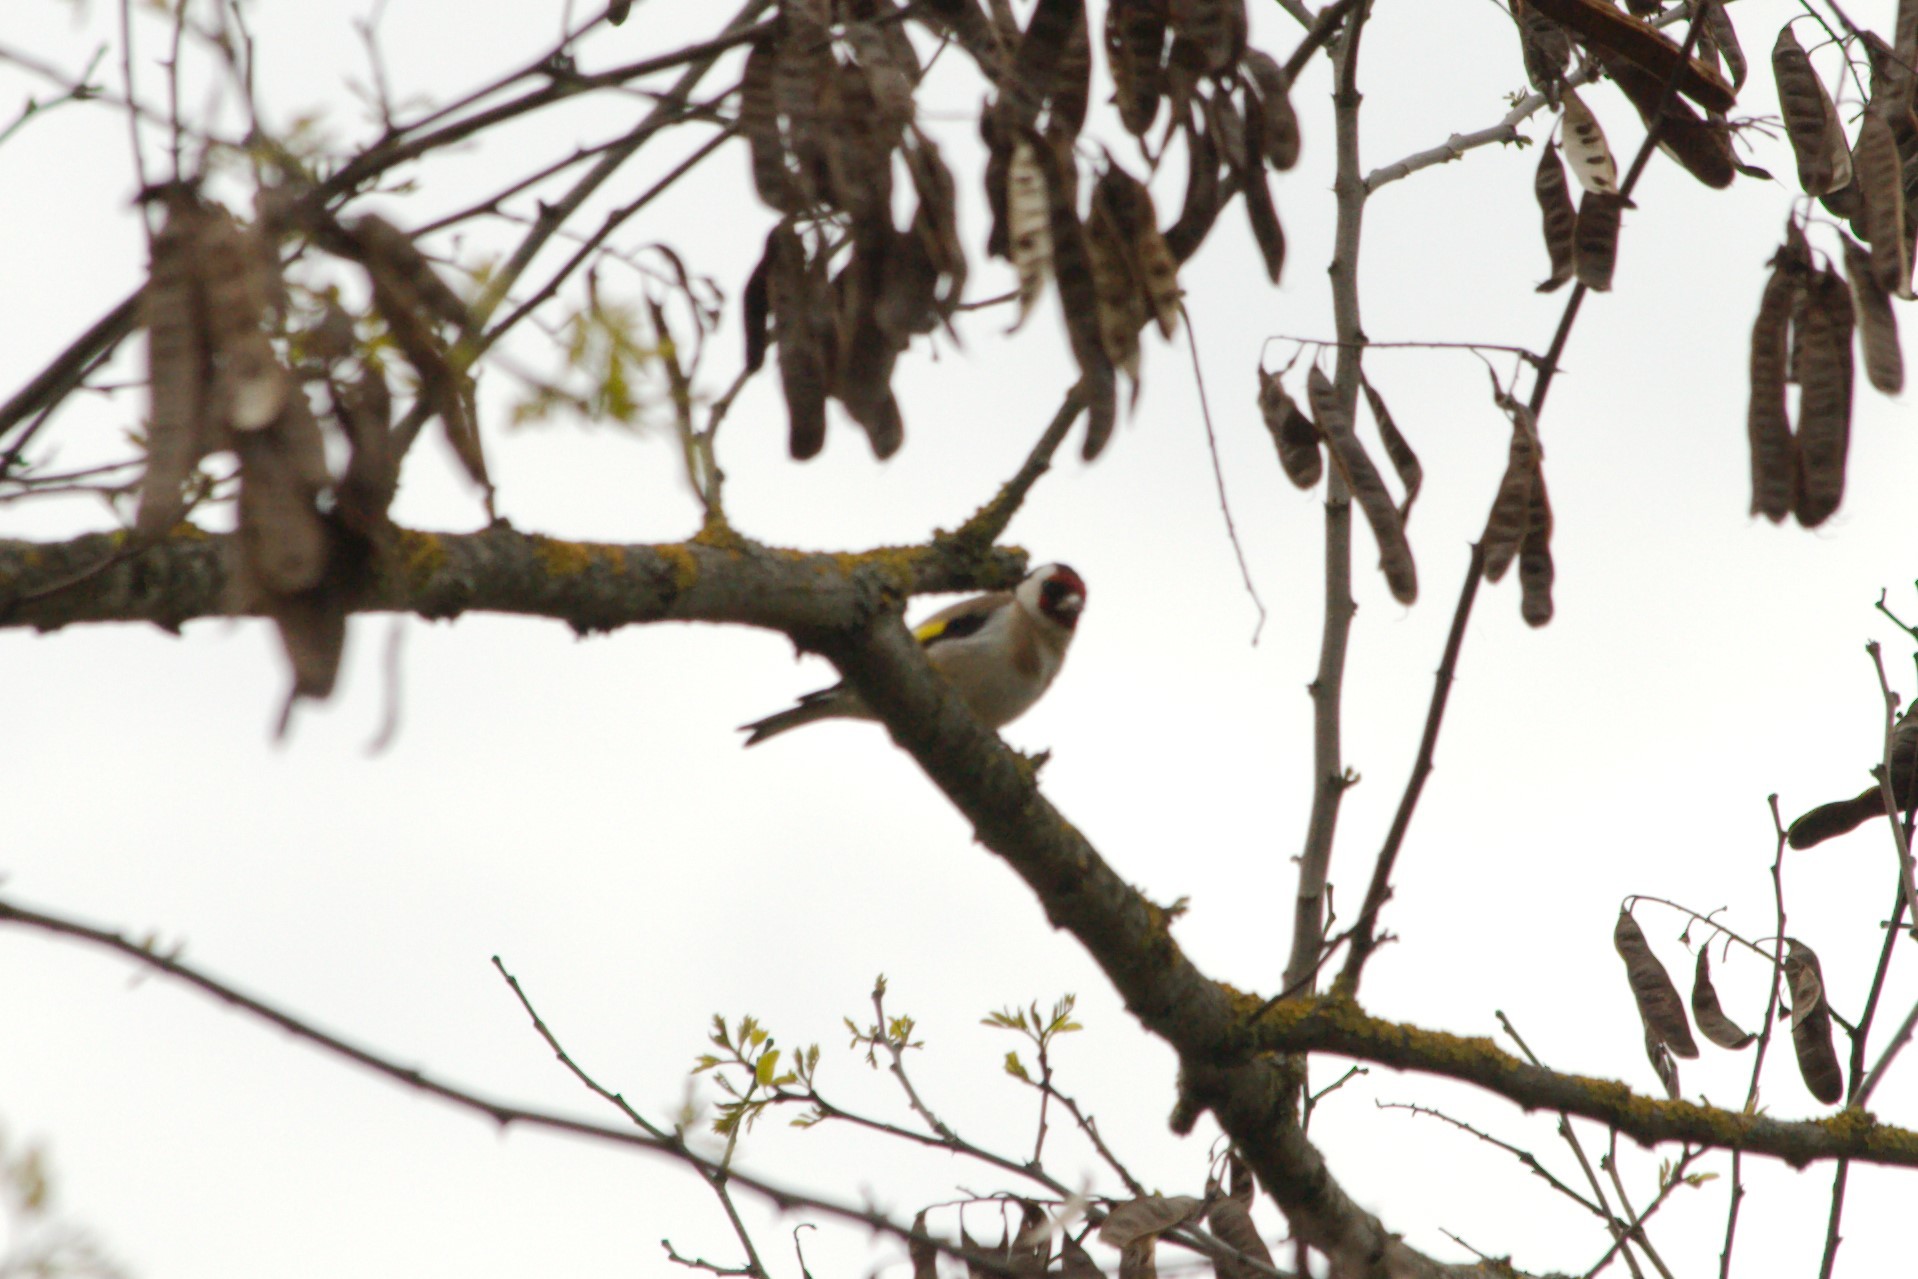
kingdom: Animalia
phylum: Chordata
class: Aves
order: Passeriformes
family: Fringillidae
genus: Carduelis
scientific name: Carduelis carduelis
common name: European goldfinch
